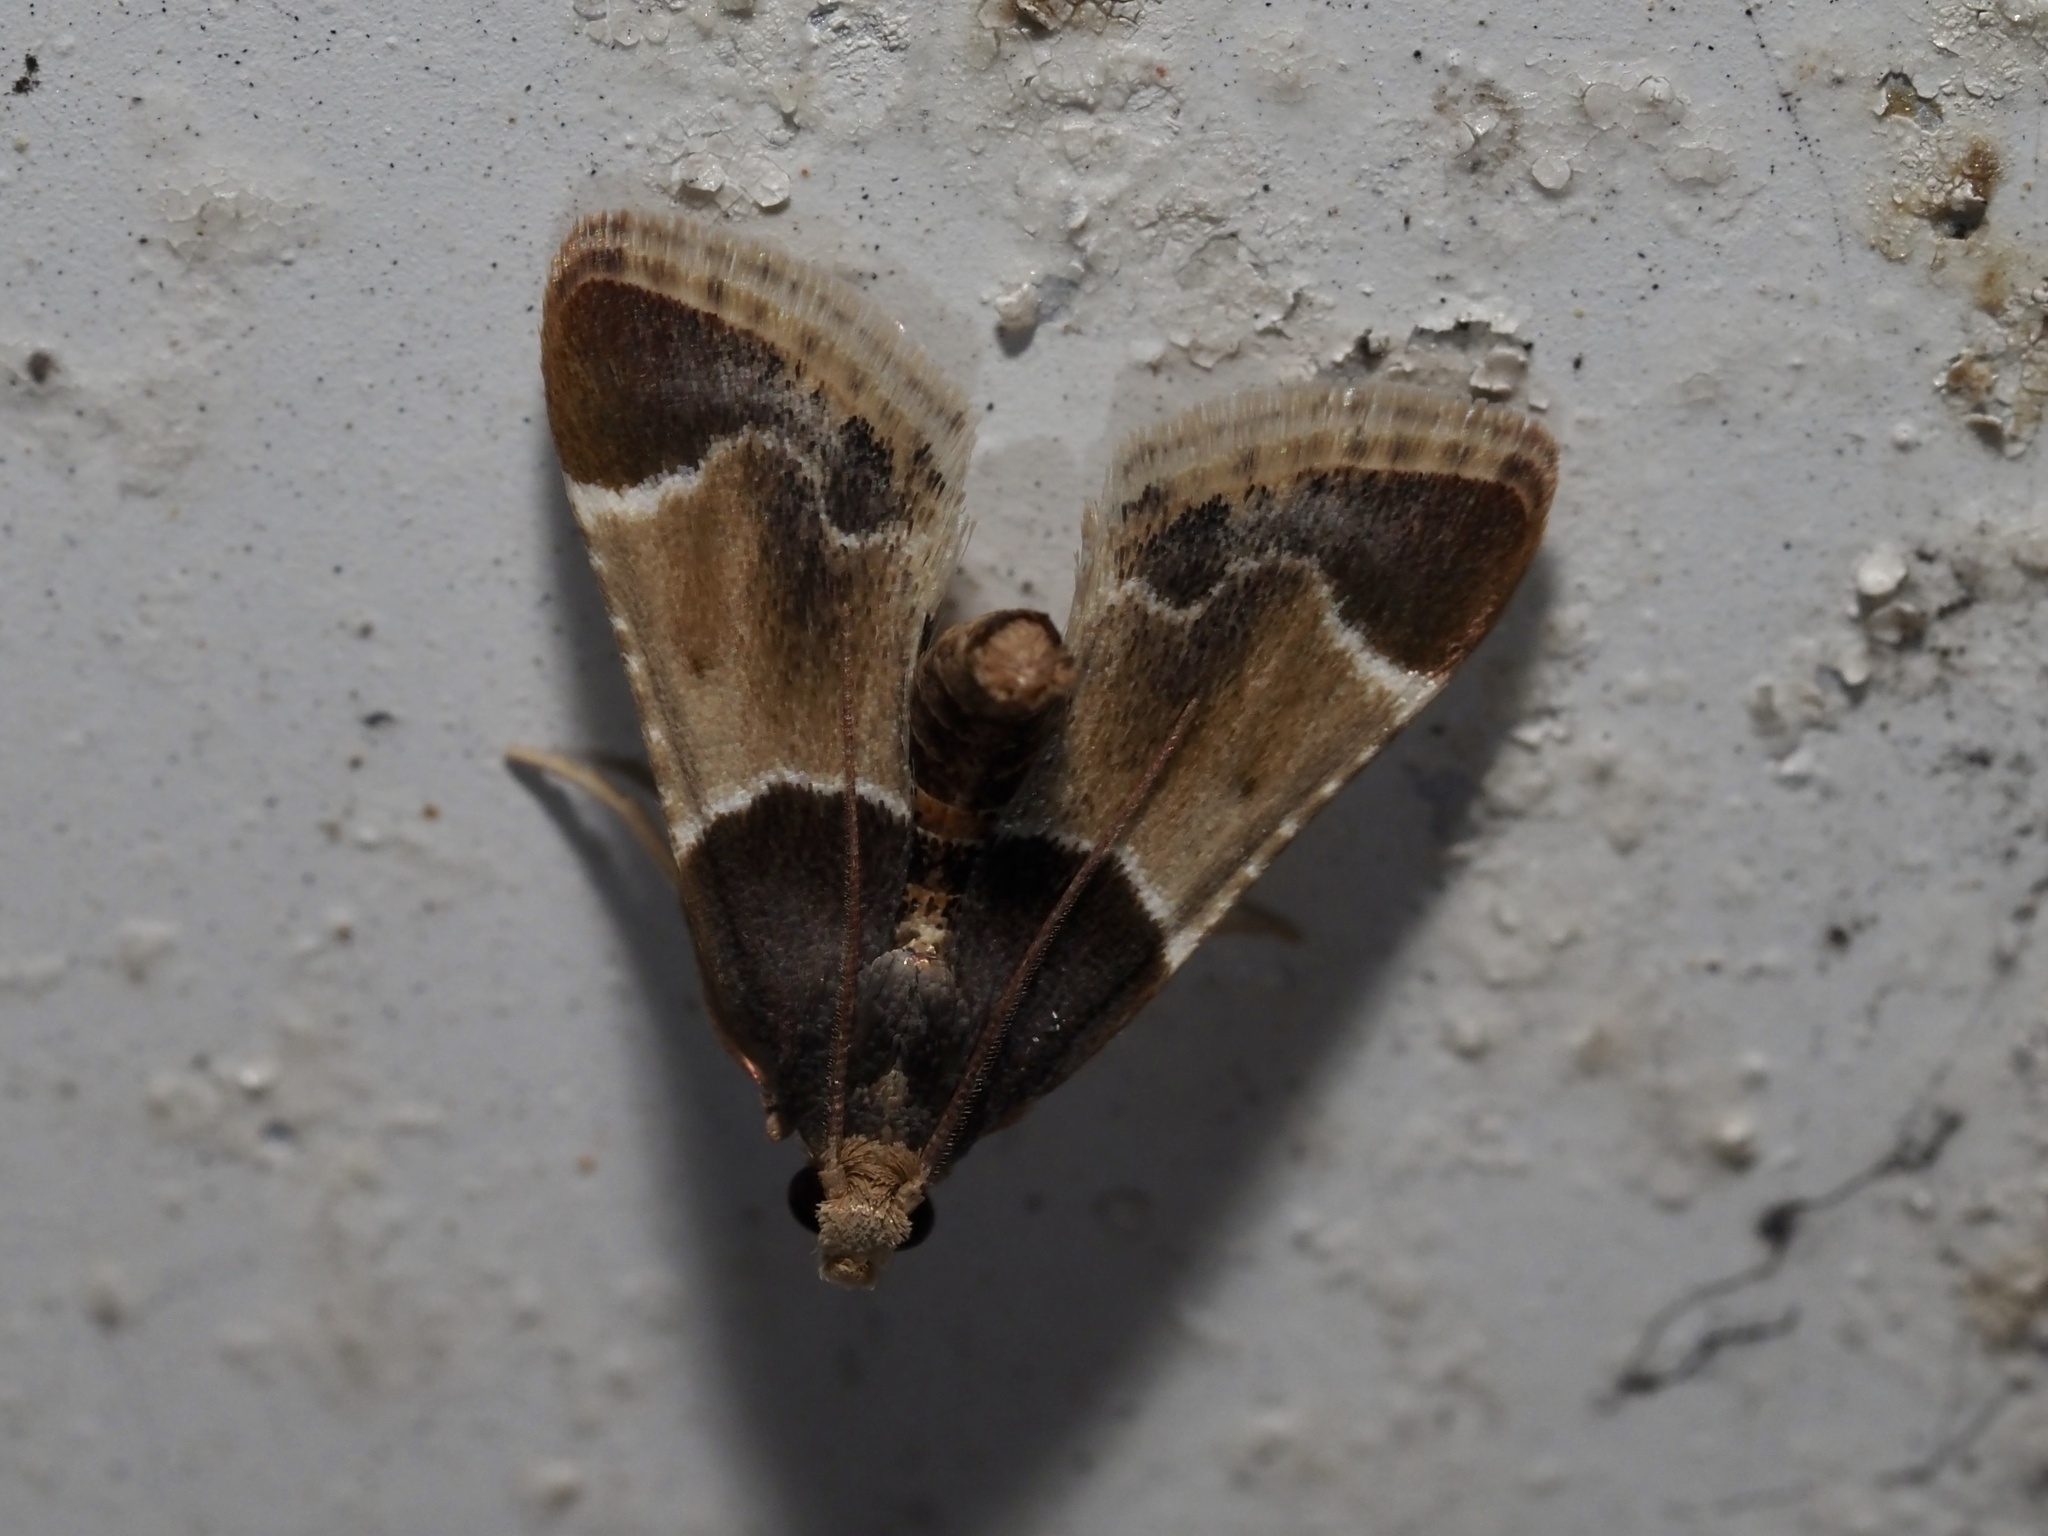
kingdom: Animalia
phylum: Arthropoda
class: Insecta
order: Lepidoptera
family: Pyralidae
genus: Pyralis
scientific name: Pyralis farinalis
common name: Meal moth
